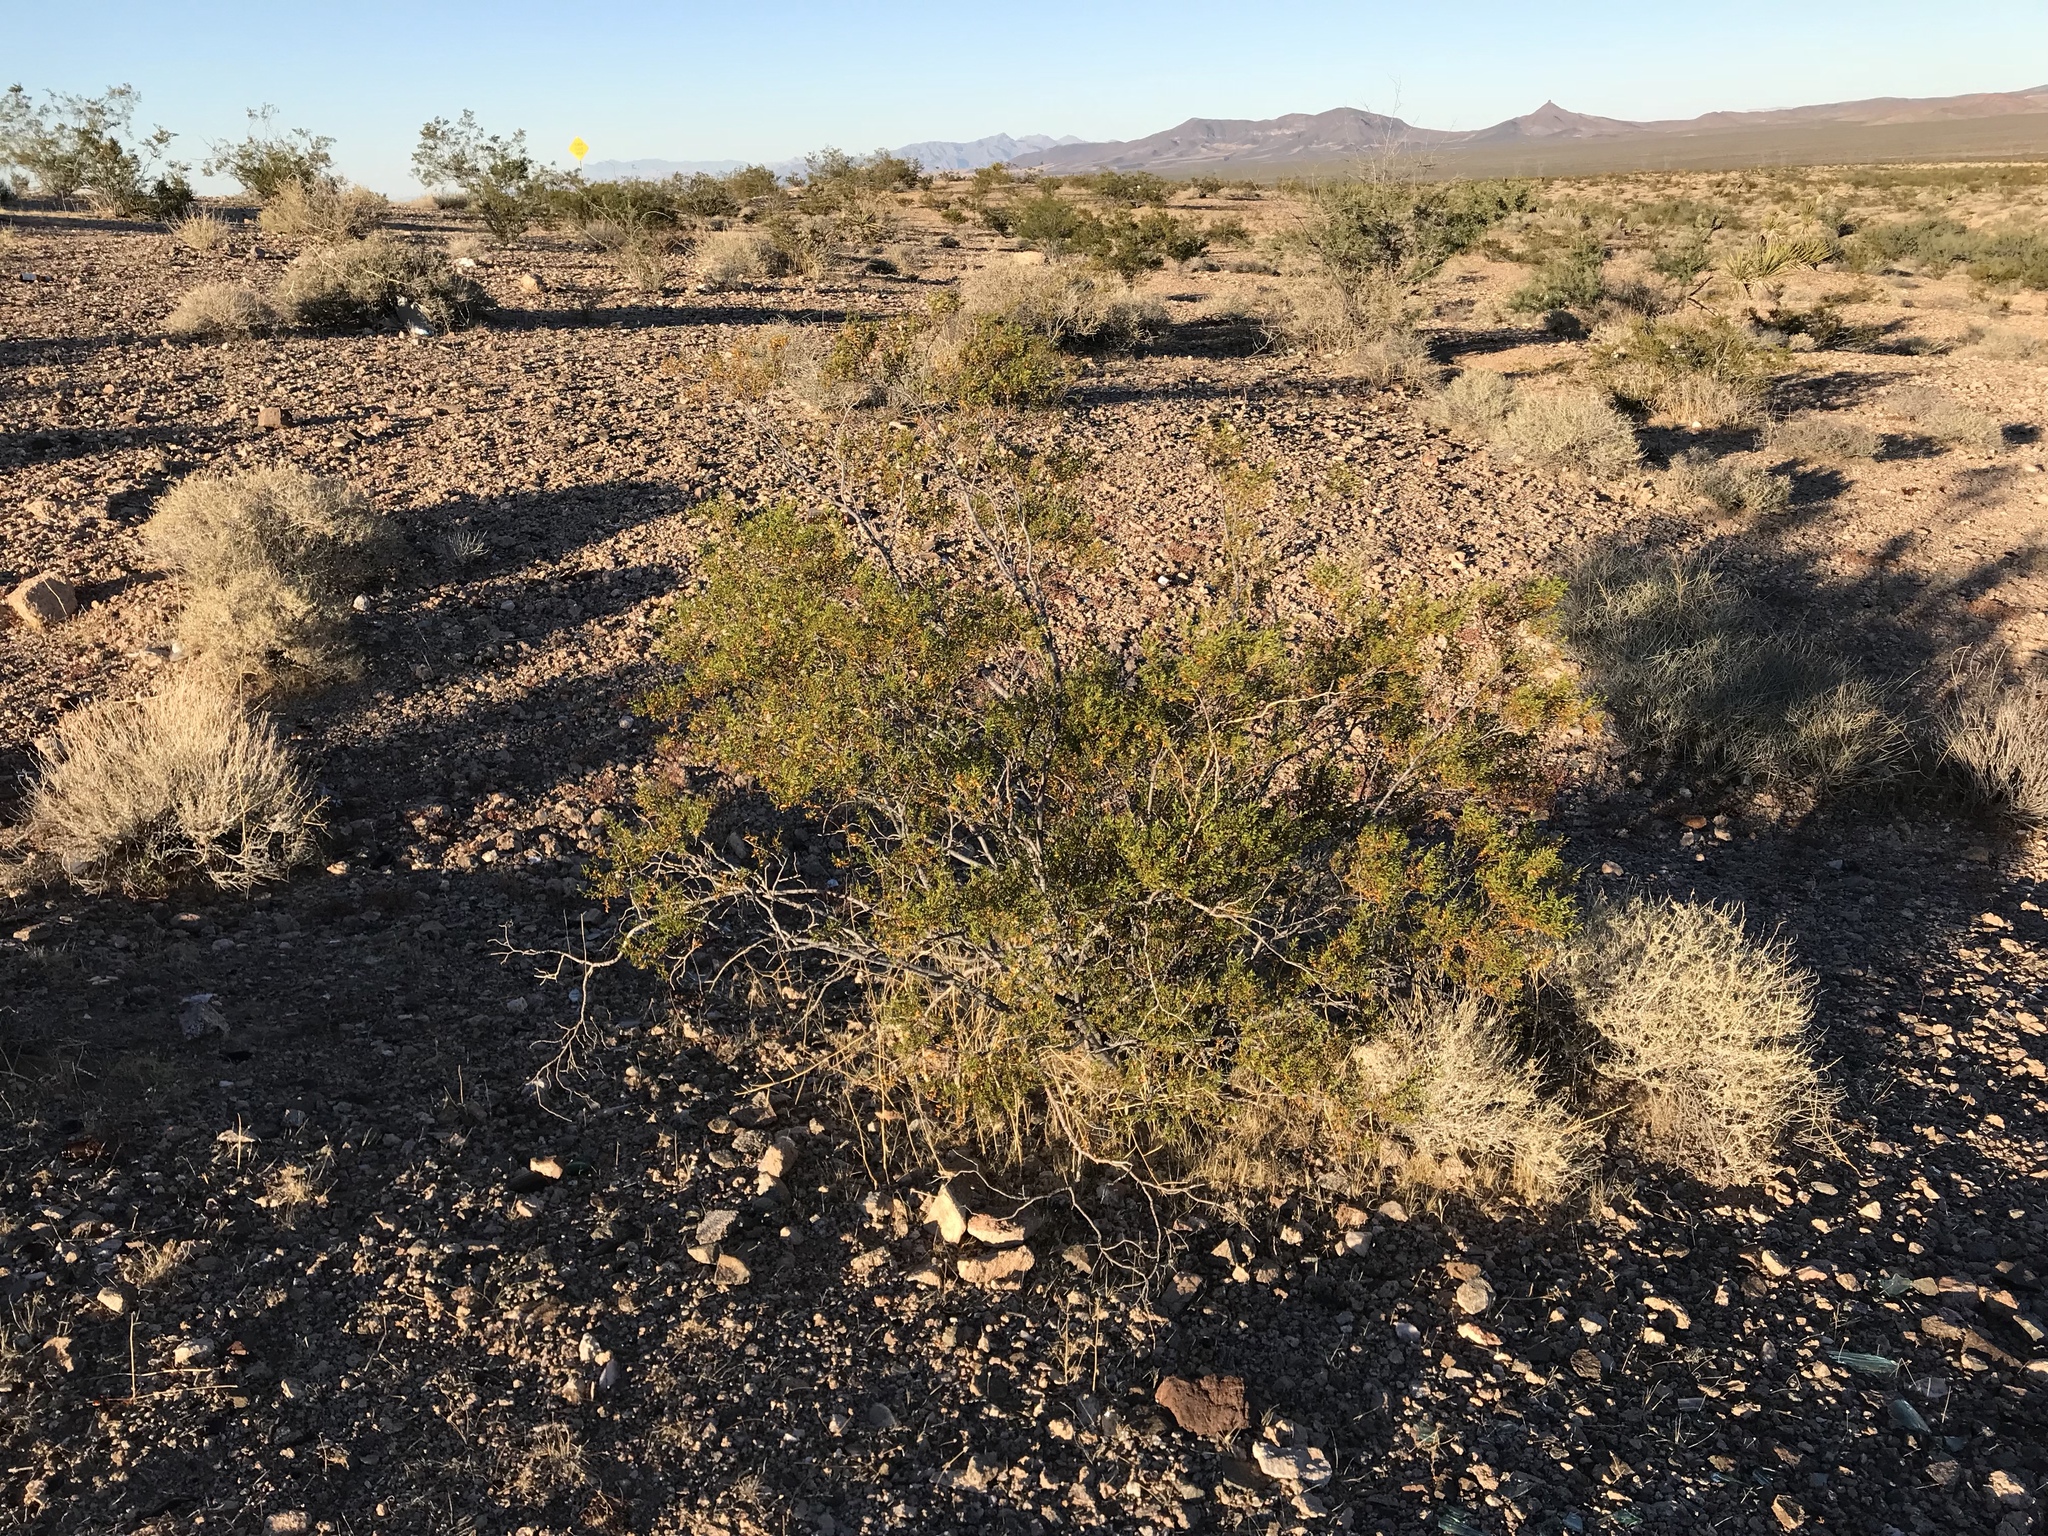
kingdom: Plantae
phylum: Tracheophyta
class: Magnoliopsida
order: Zygophyllales
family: Zygophyllaceae
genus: Larrea
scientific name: Larrea tridentata
